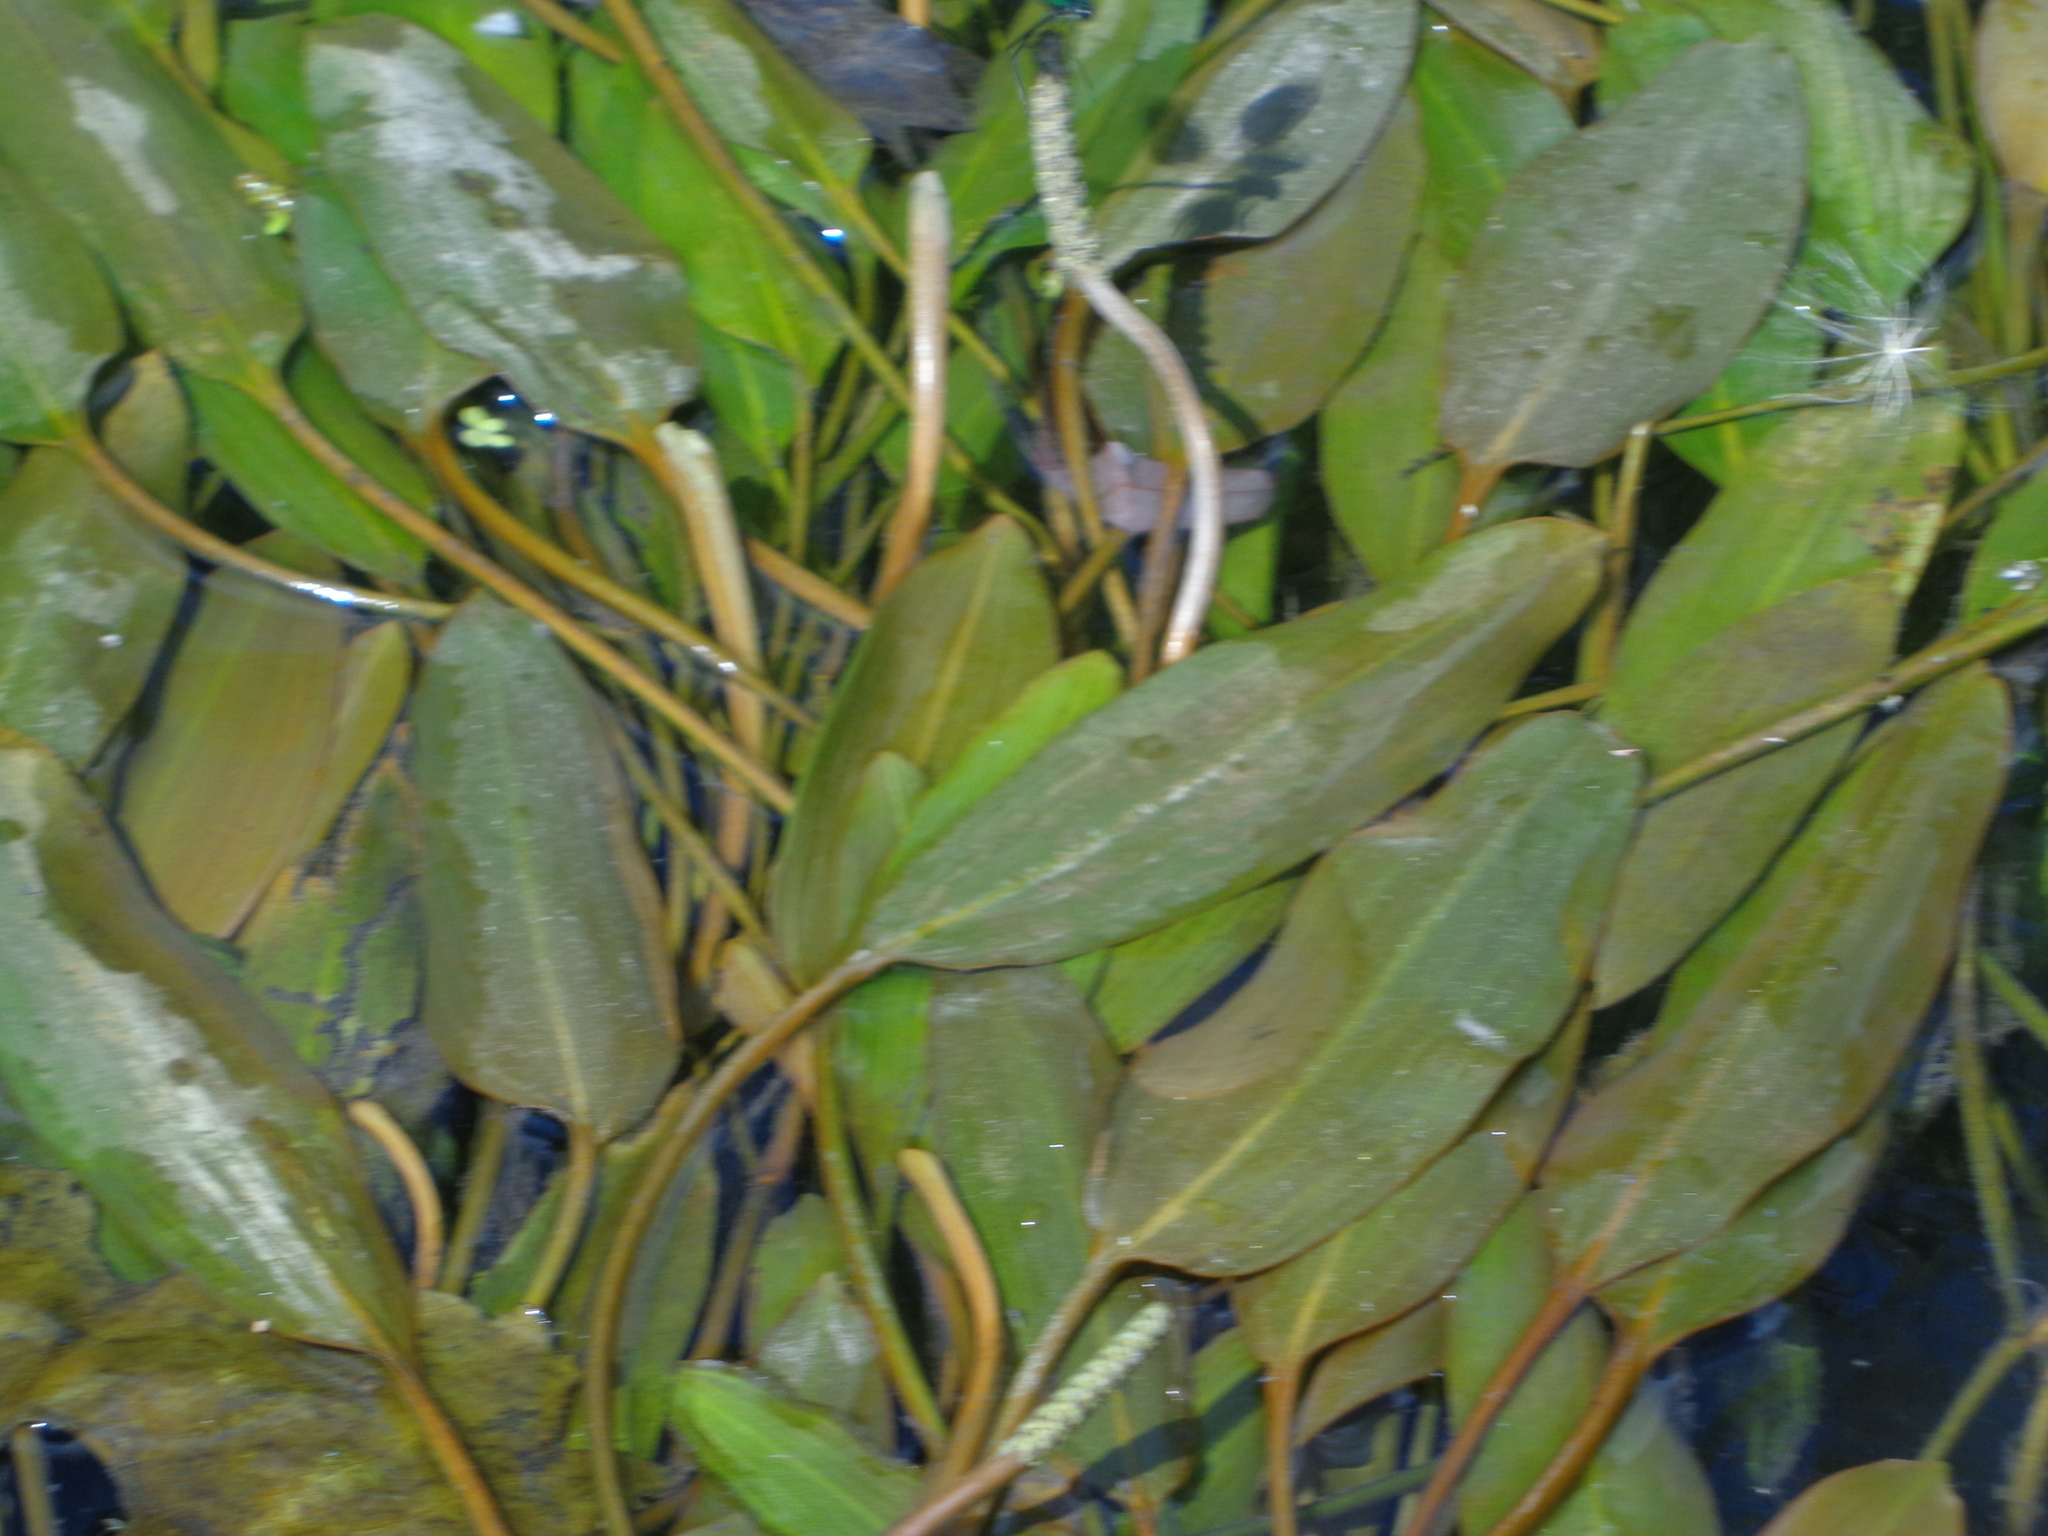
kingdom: Plantae
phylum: Tracheophyta
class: Liliopsida
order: Alismatales
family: Potamogetonaceae
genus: Potamogeton
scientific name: Potamogeton nodosus
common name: Loddon pondweed
